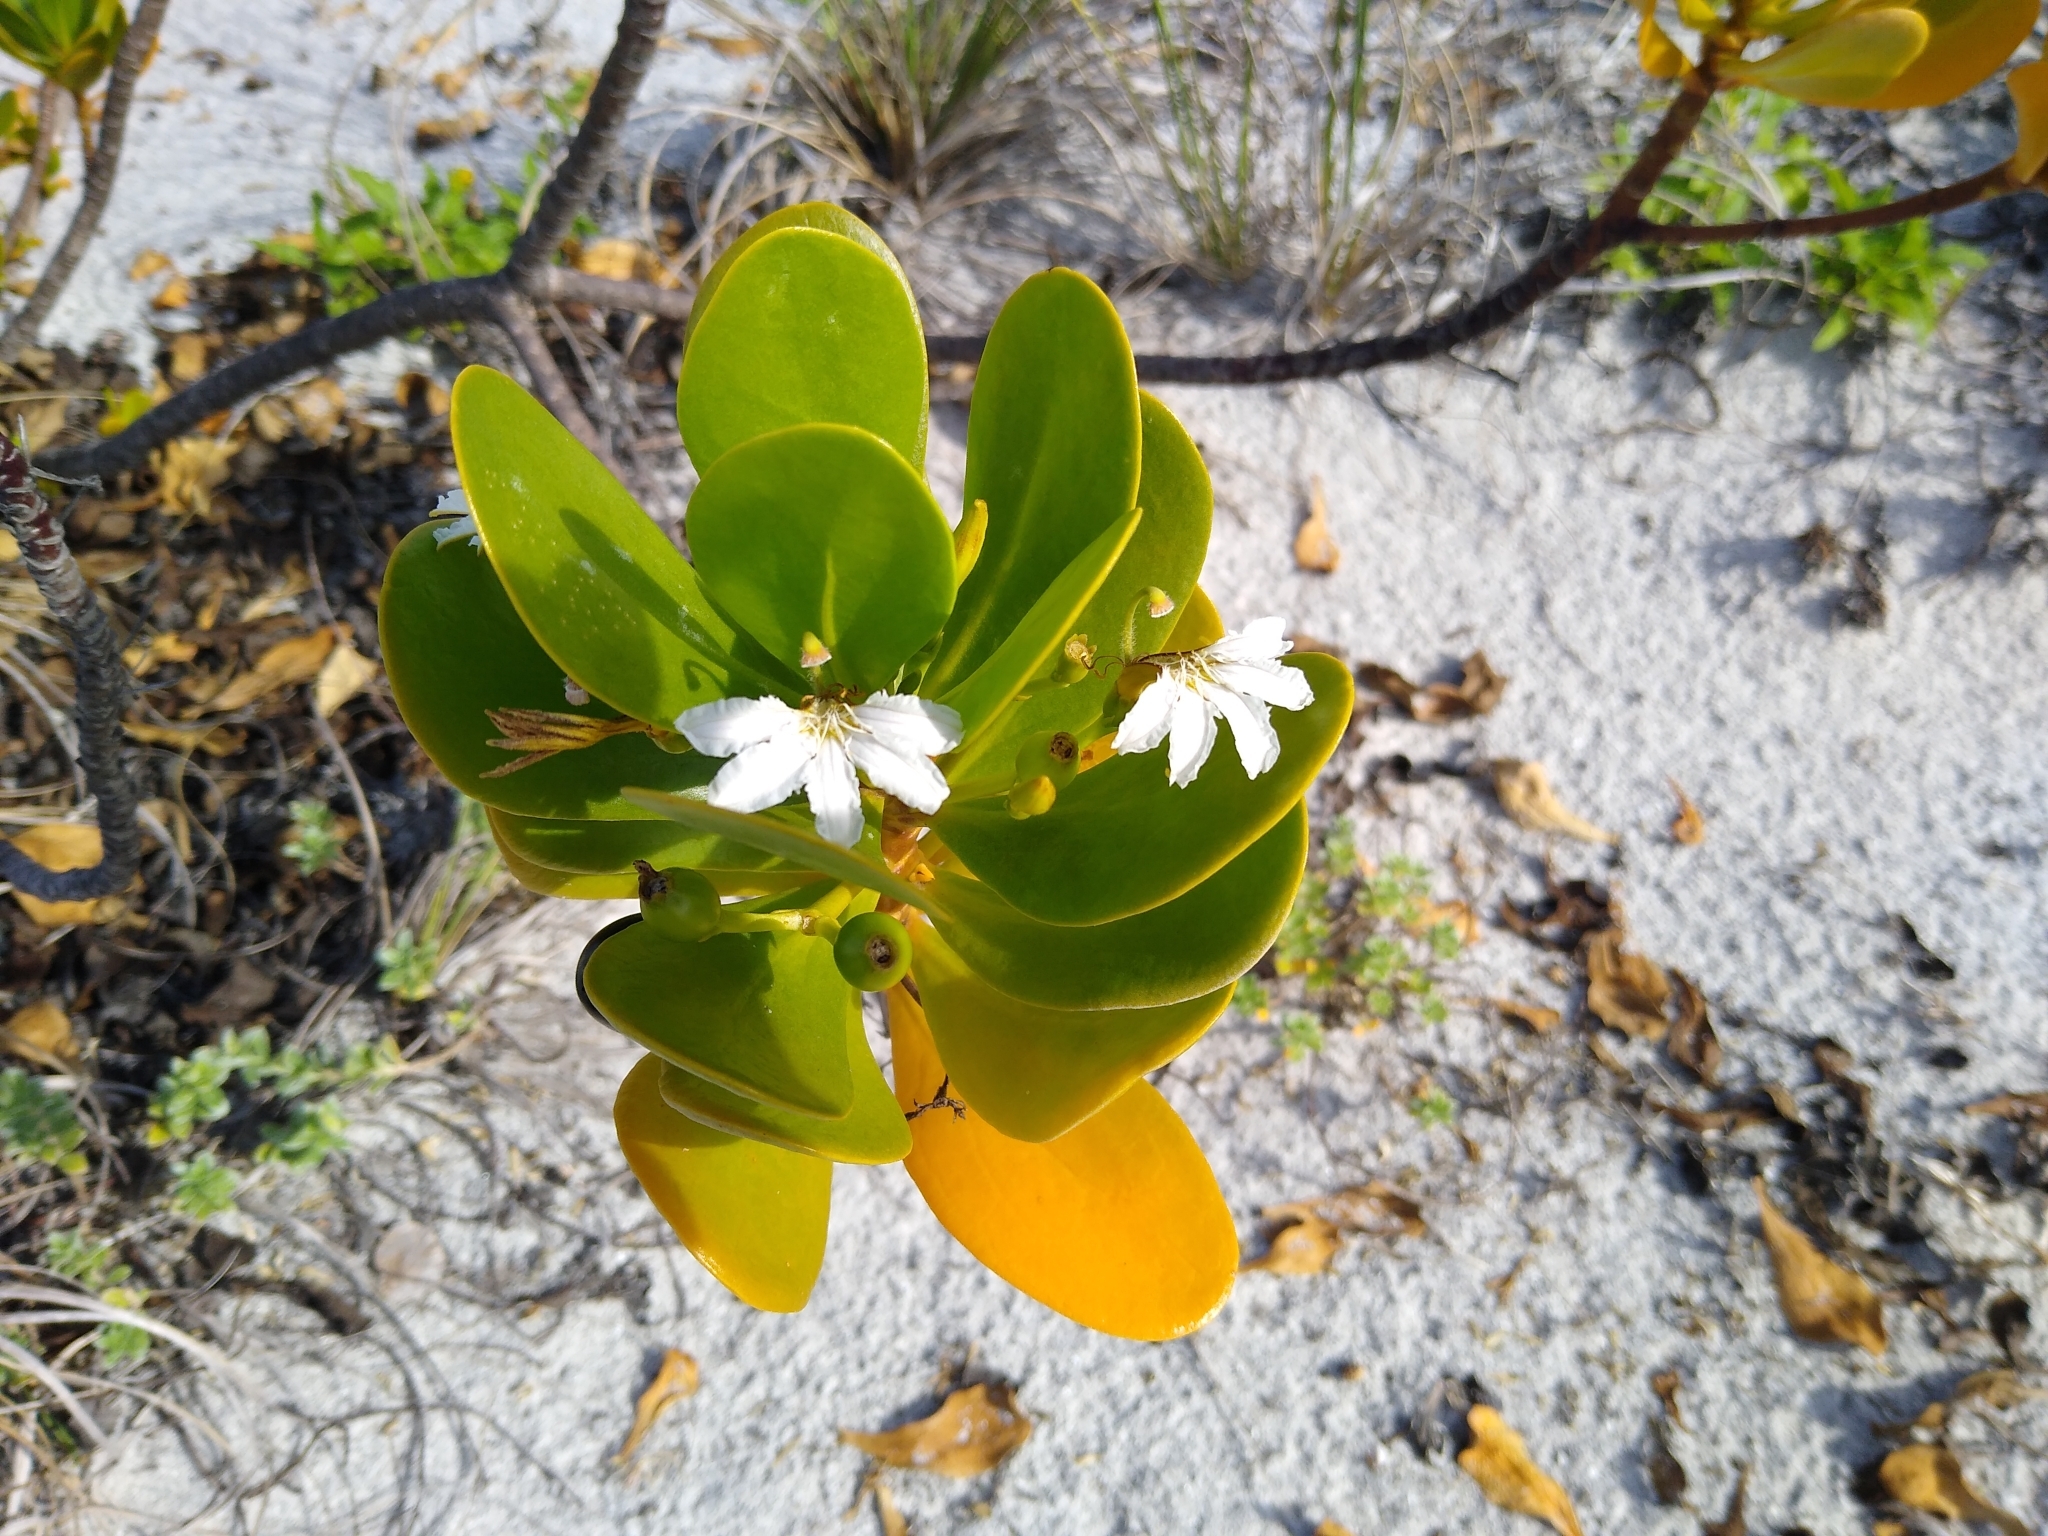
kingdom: Plantae
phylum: Tracheophyta
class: Magnoliopsida
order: Asterales
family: Goodeniaceae
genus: Scaevola
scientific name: Scaevola plumieri
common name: Gull feed
